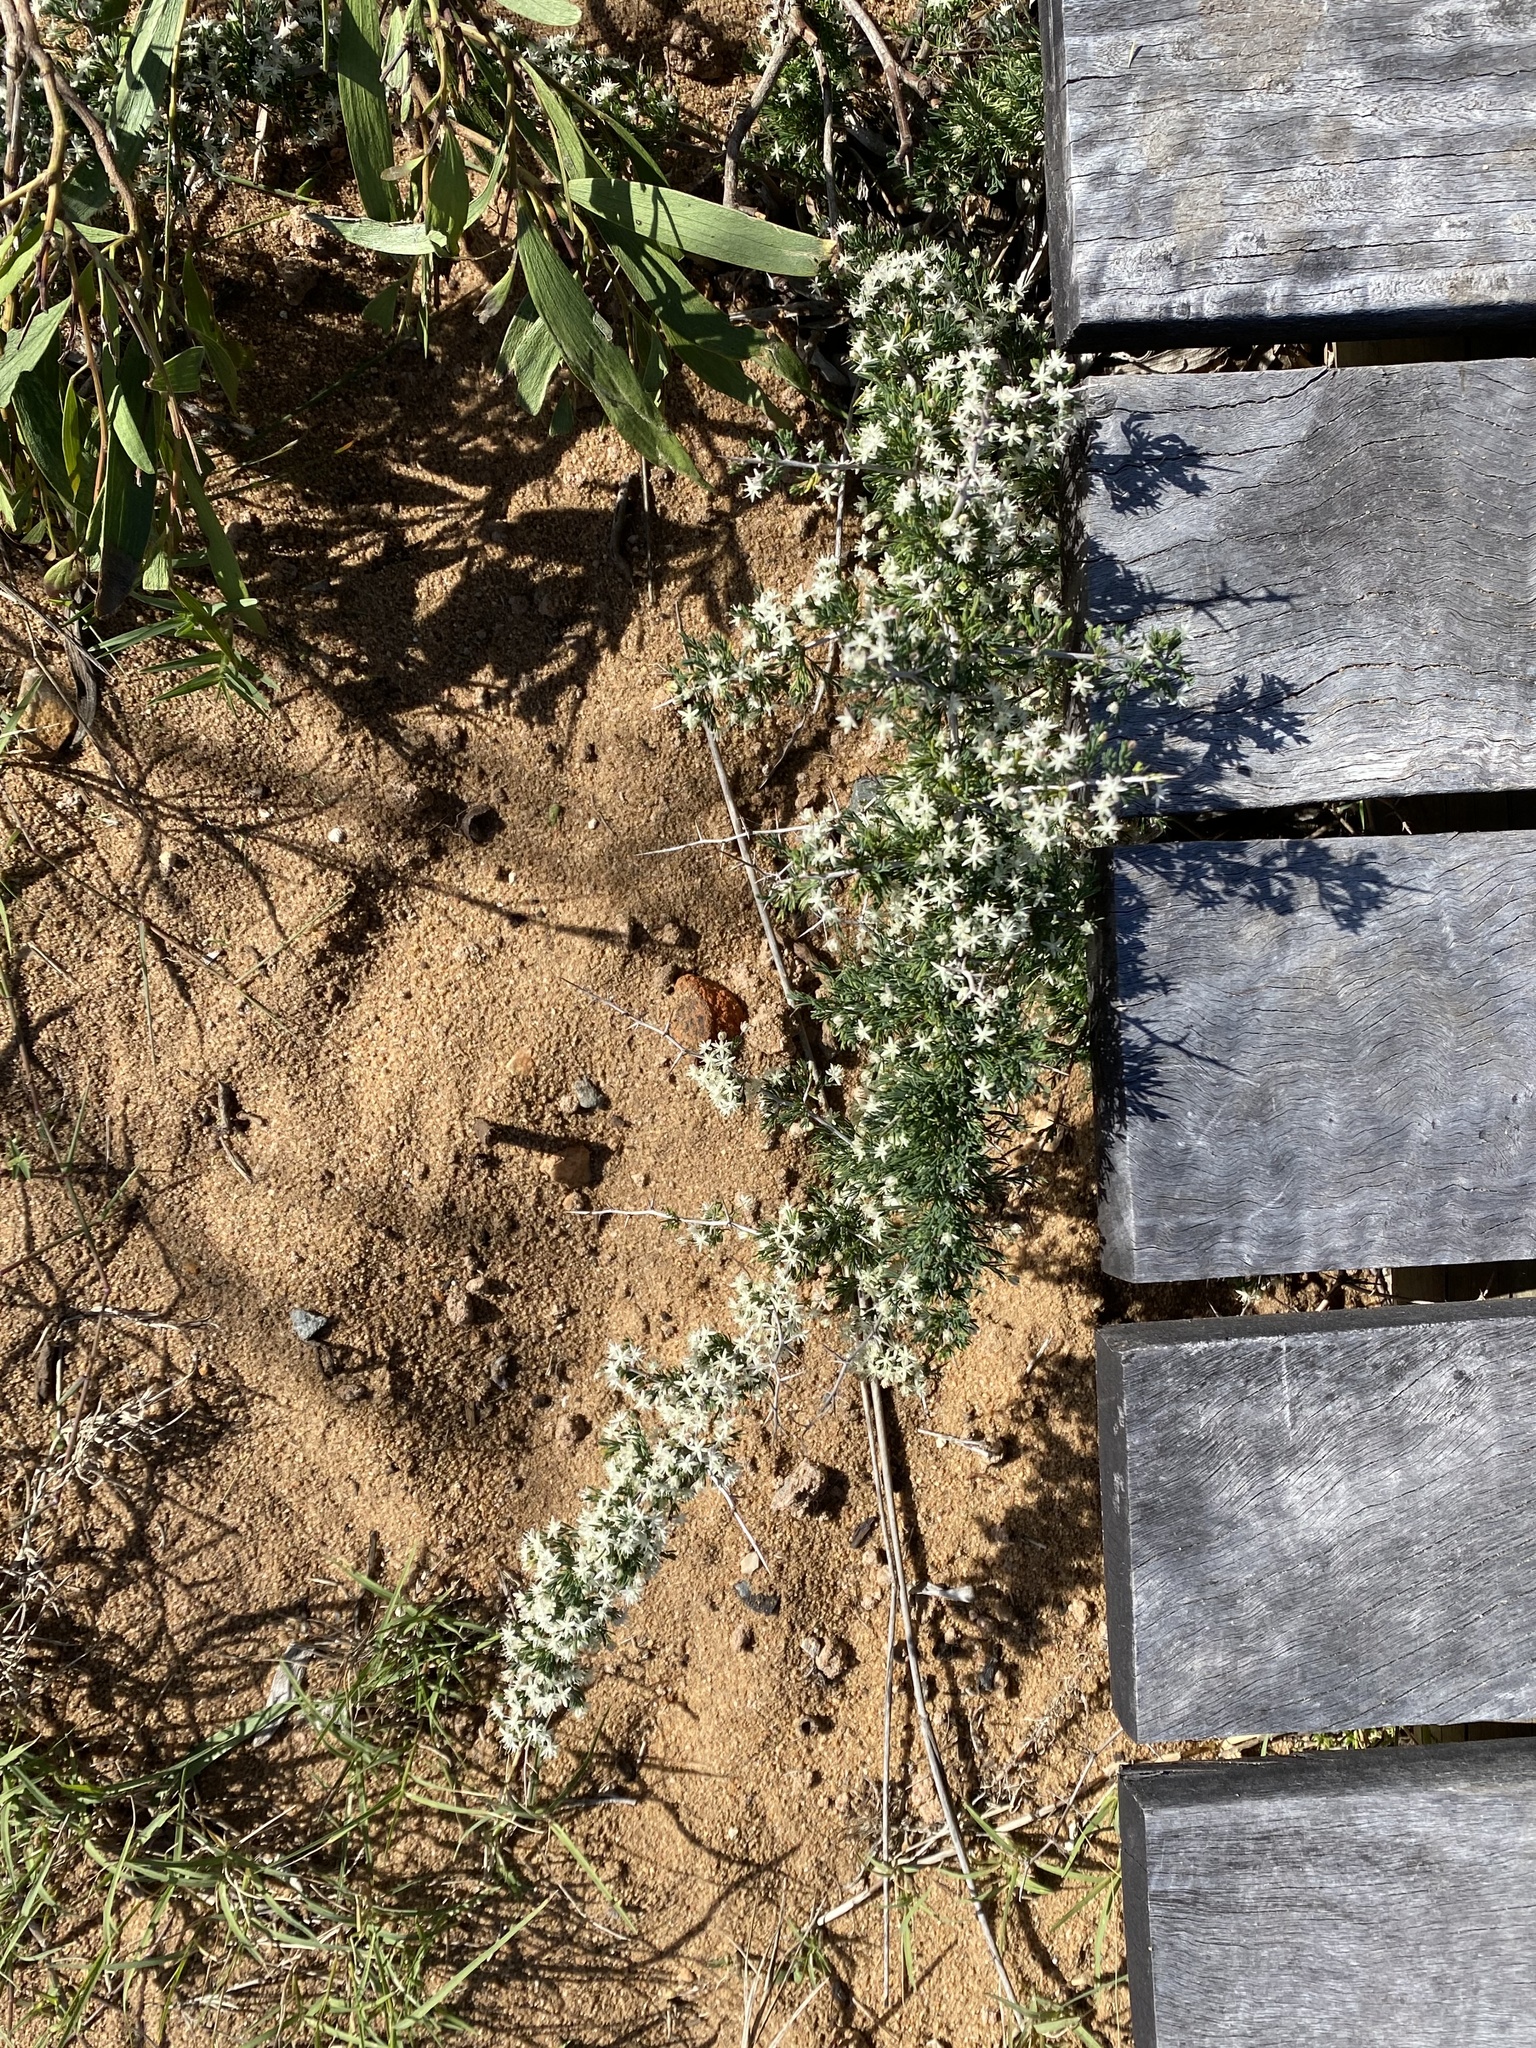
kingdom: Plantae
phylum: Tracheophyta
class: Liliopsida
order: Asparagales
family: Asparagaceae
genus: Asparagus
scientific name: Asparagus suaveolens
